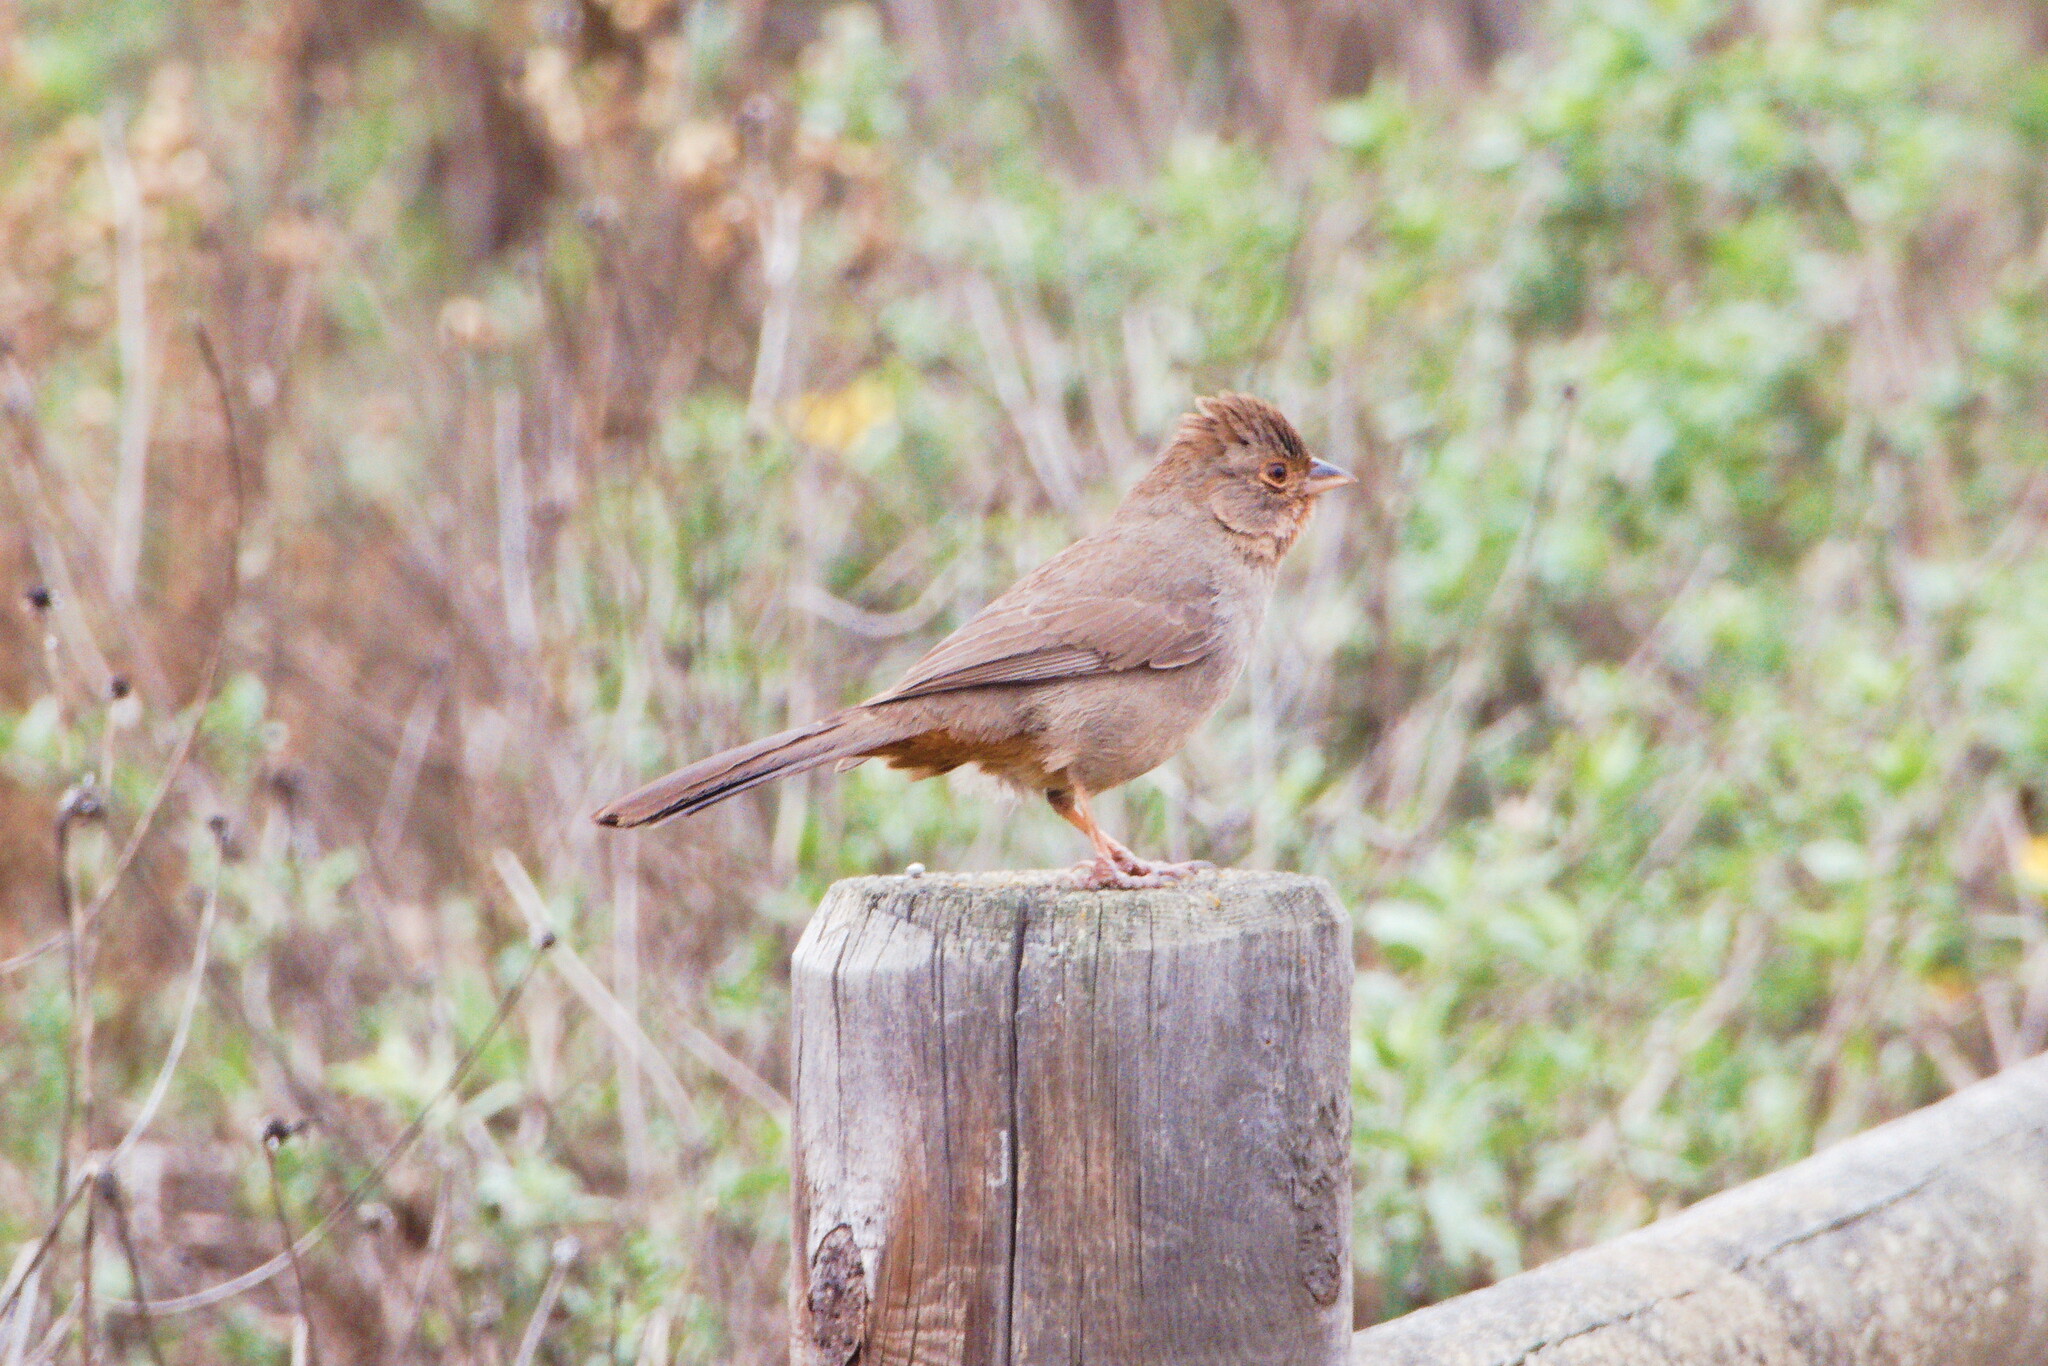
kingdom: Animalia
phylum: Chordata
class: Aves
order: Passeriformes
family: Passerellidae
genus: Melozone
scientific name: Melozone crissalis
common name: California towhee
